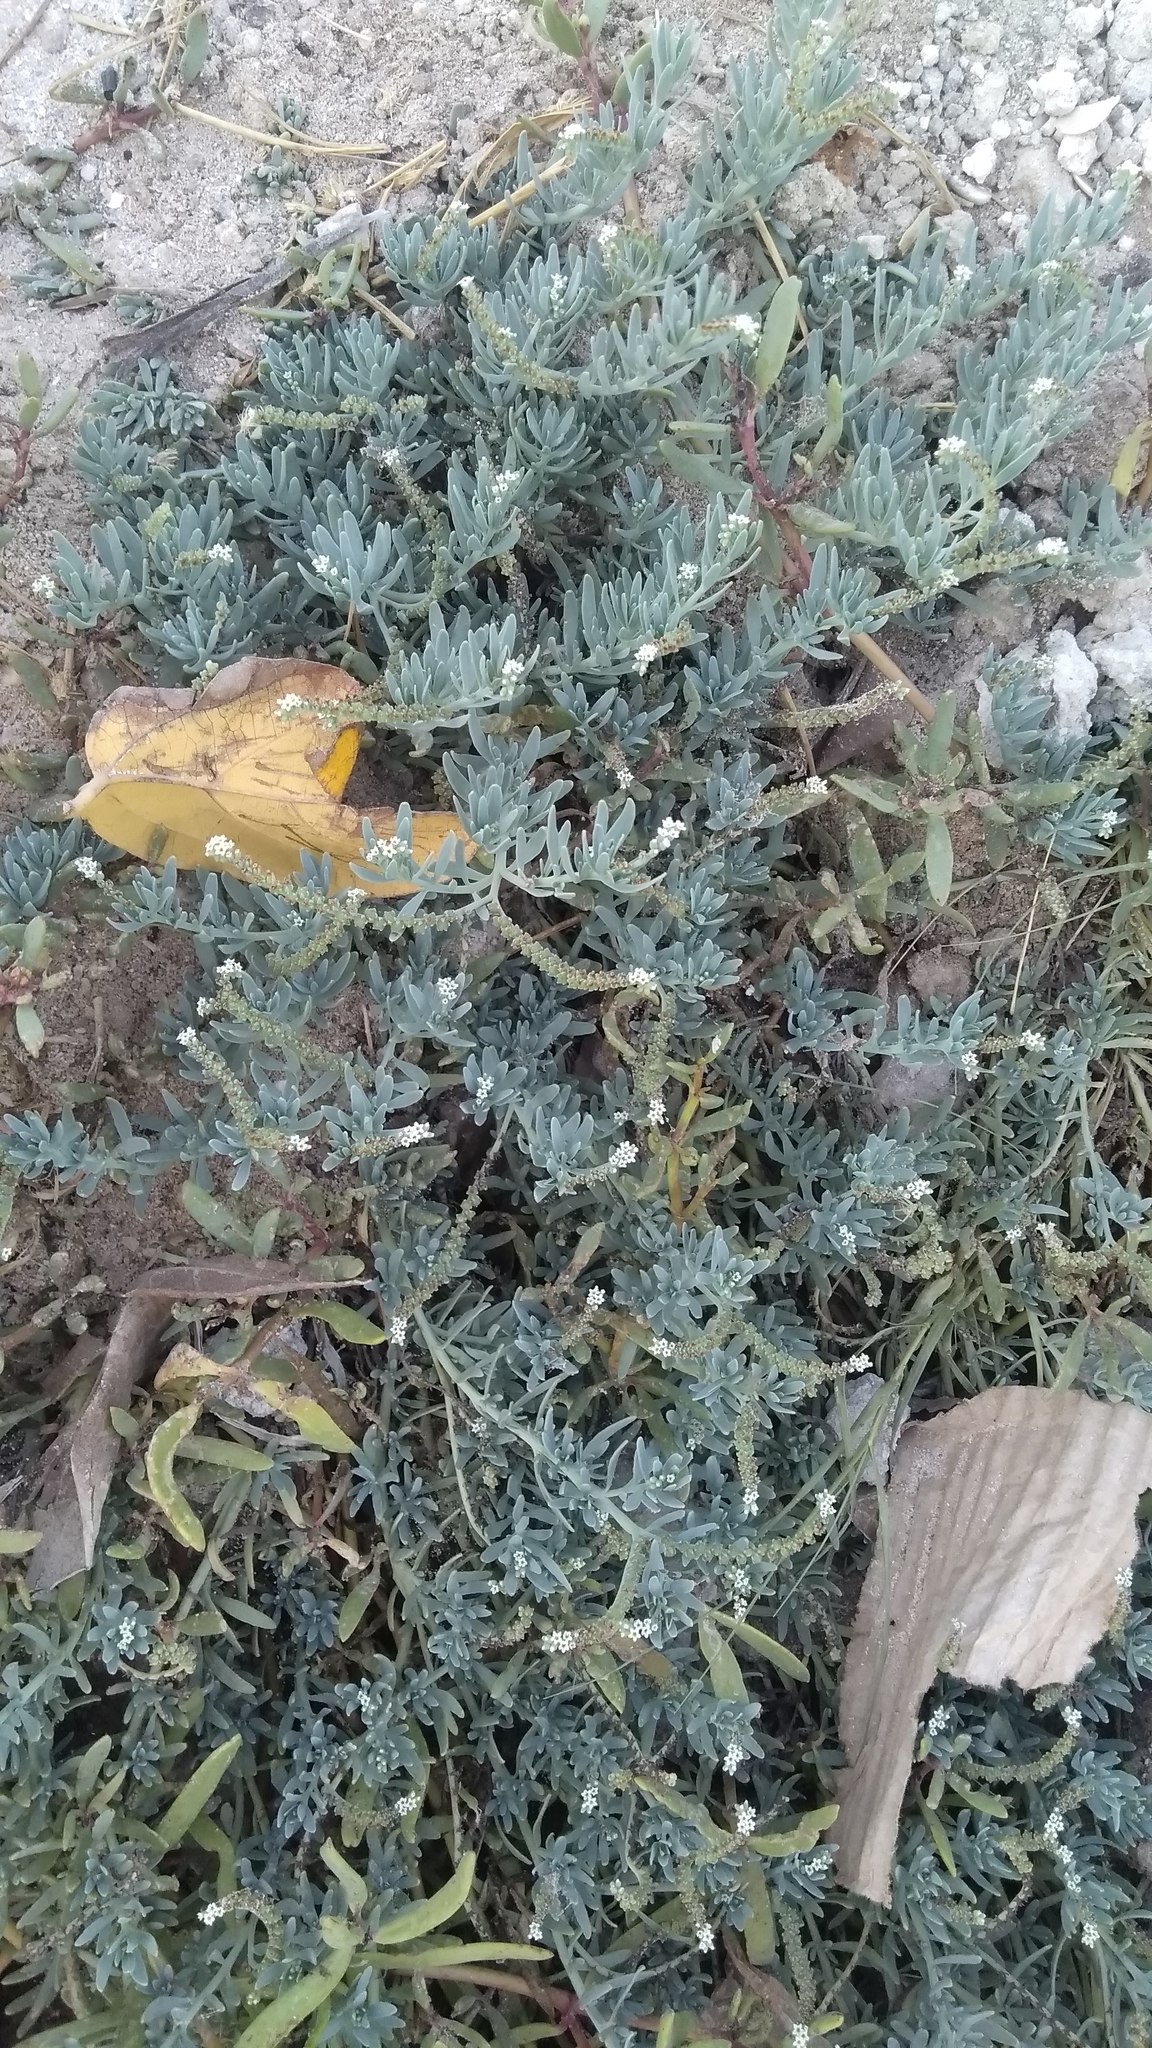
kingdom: Plantae
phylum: Tracheophyta
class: Magnoliopsida
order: Boraginales
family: Heliotropiaceae
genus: Heliotropium
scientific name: Heliotropium curassavicum
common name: Seaside heliotrope
